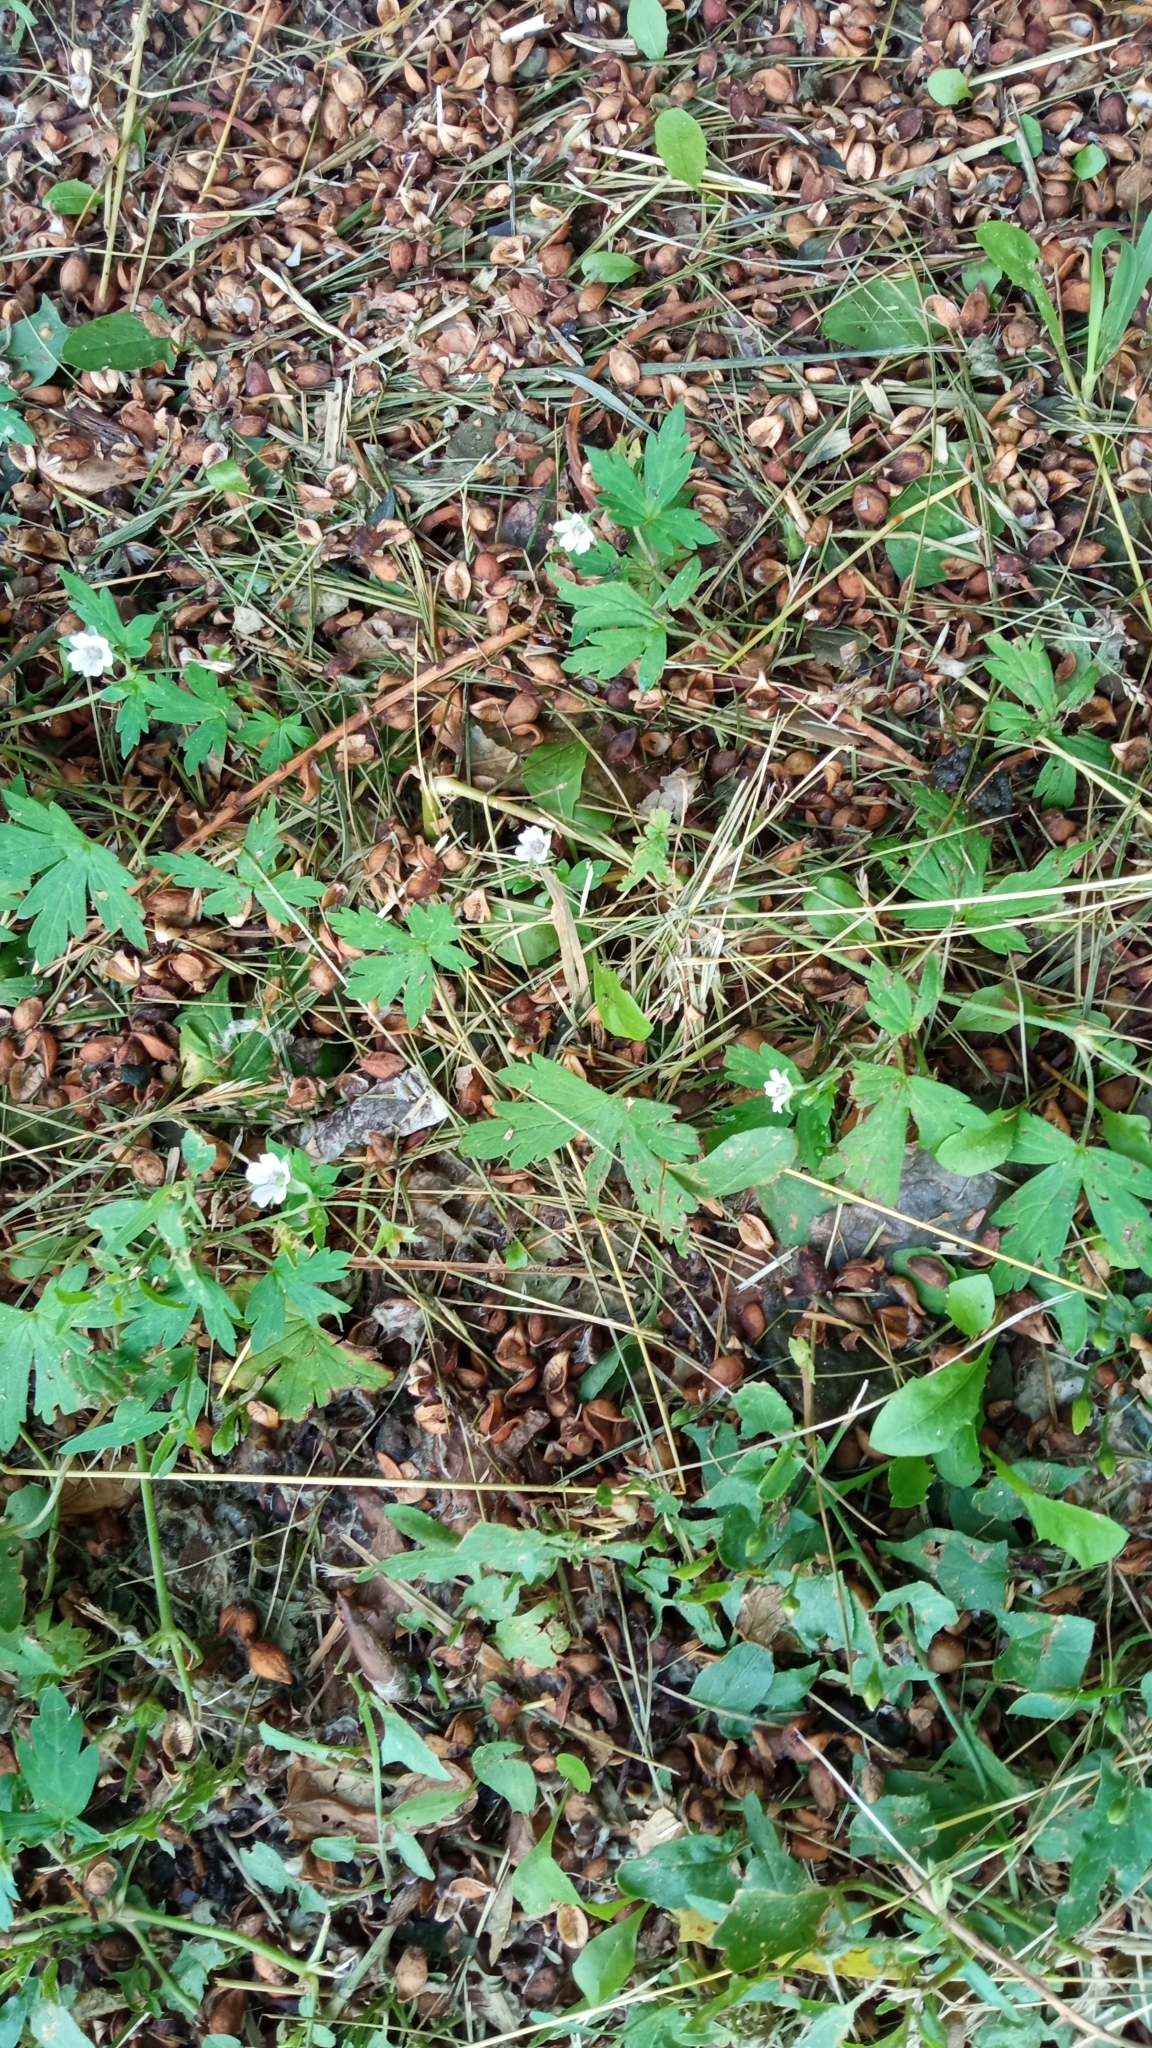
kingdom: Plantae
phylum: Tracheophyta
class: Magnoliopsida
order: Geraniales
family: Geraniaceae
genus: Geranium
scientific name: Geranium sibiricum
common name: Siberian crane's-bill
